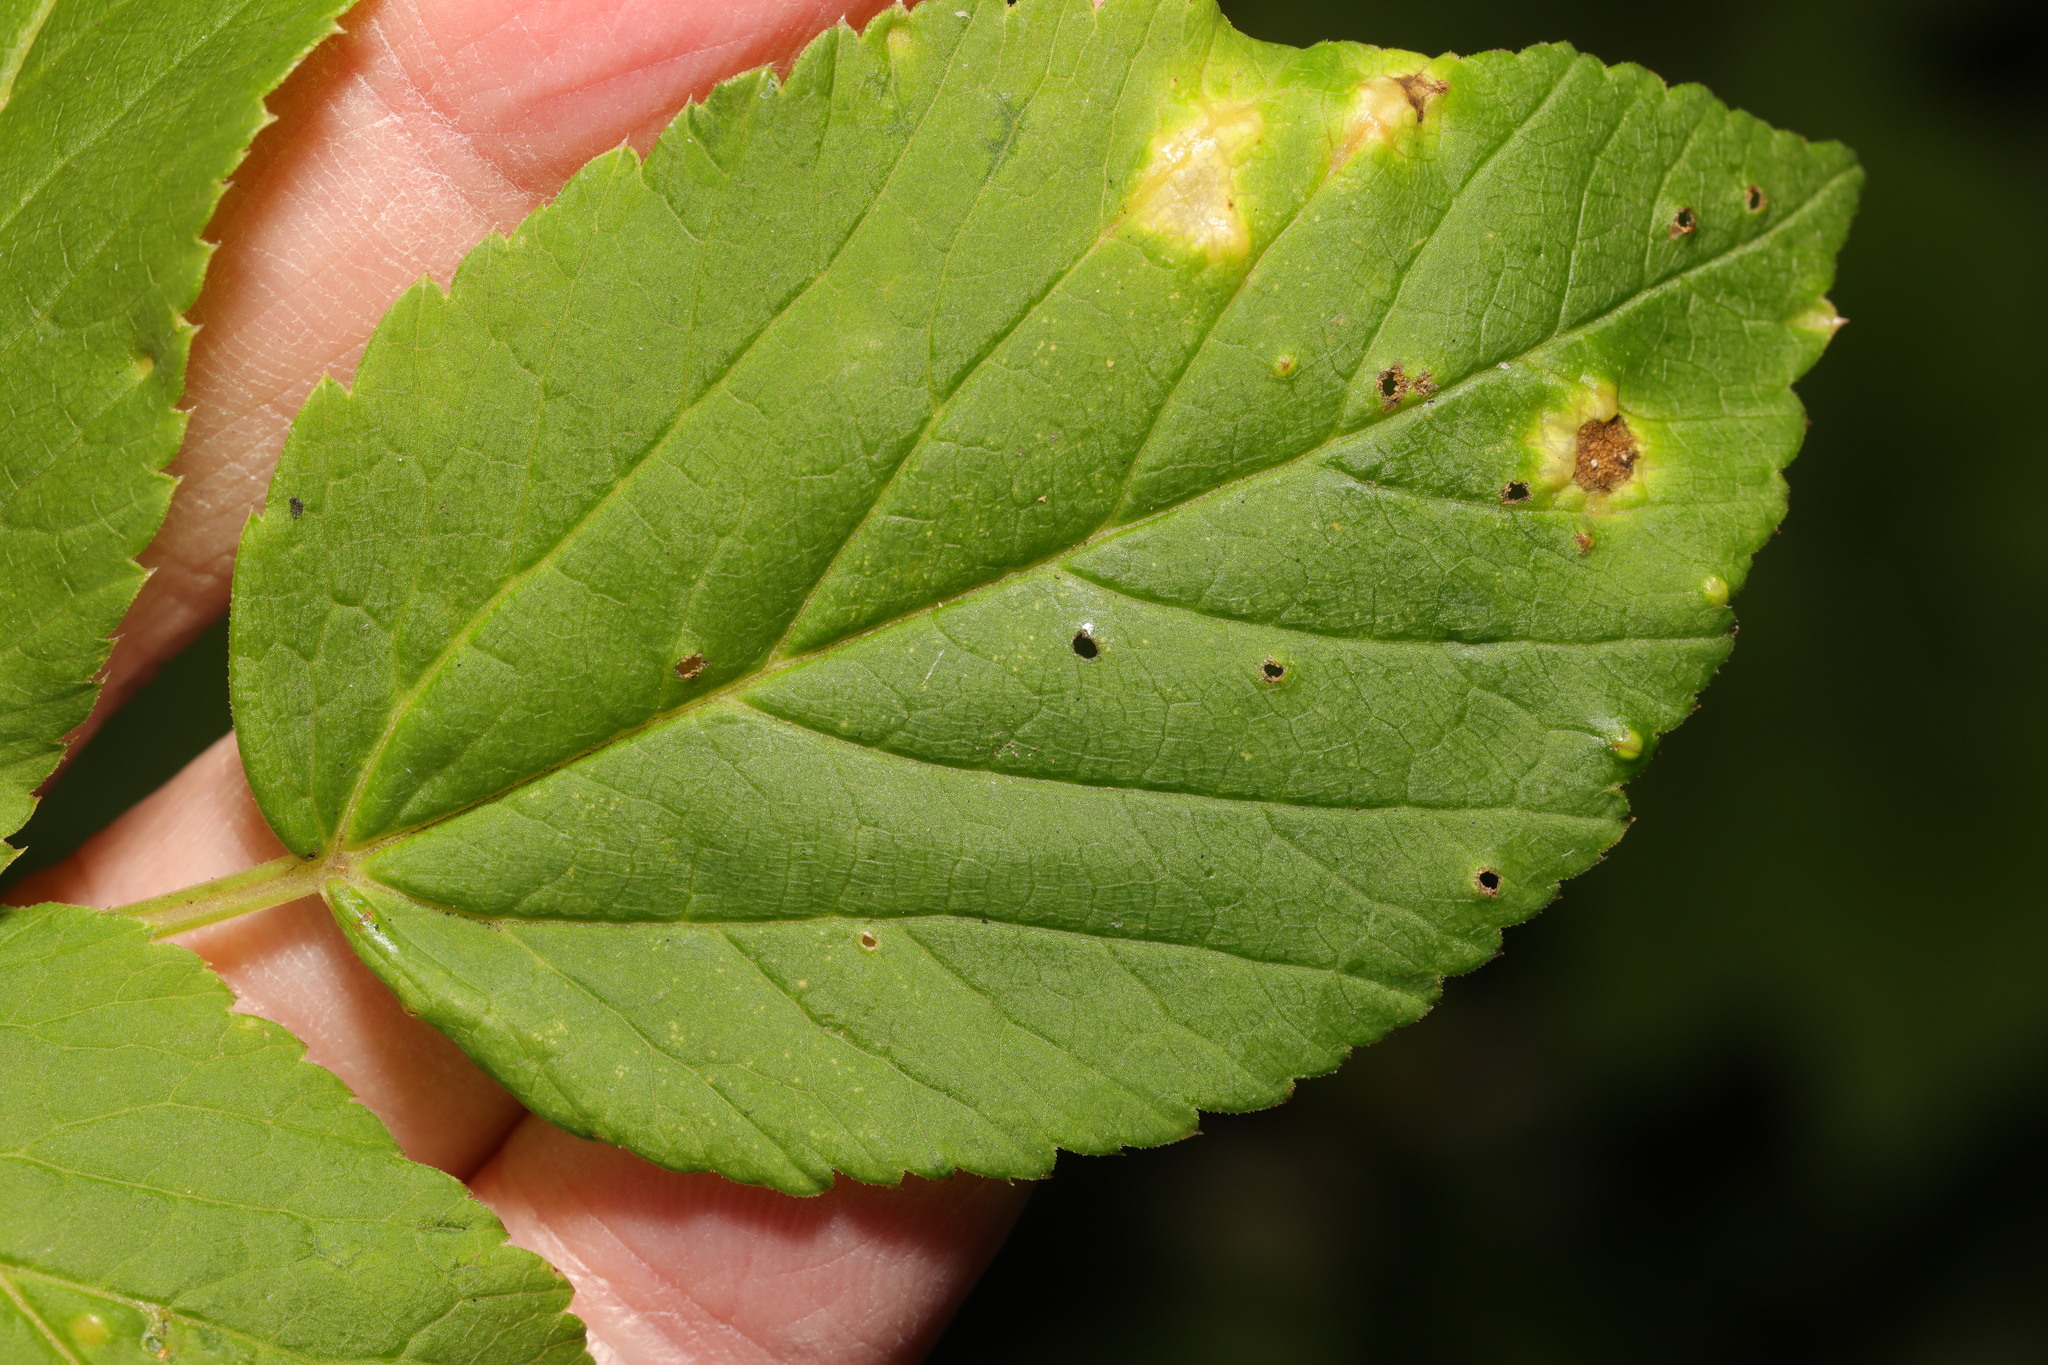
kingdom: Fungi
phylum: Ascomycota
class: Taphrinomycetes
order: Taphrinales
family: Taphrinaceae
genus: Protomyces
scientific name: Protomyces macrosporus
